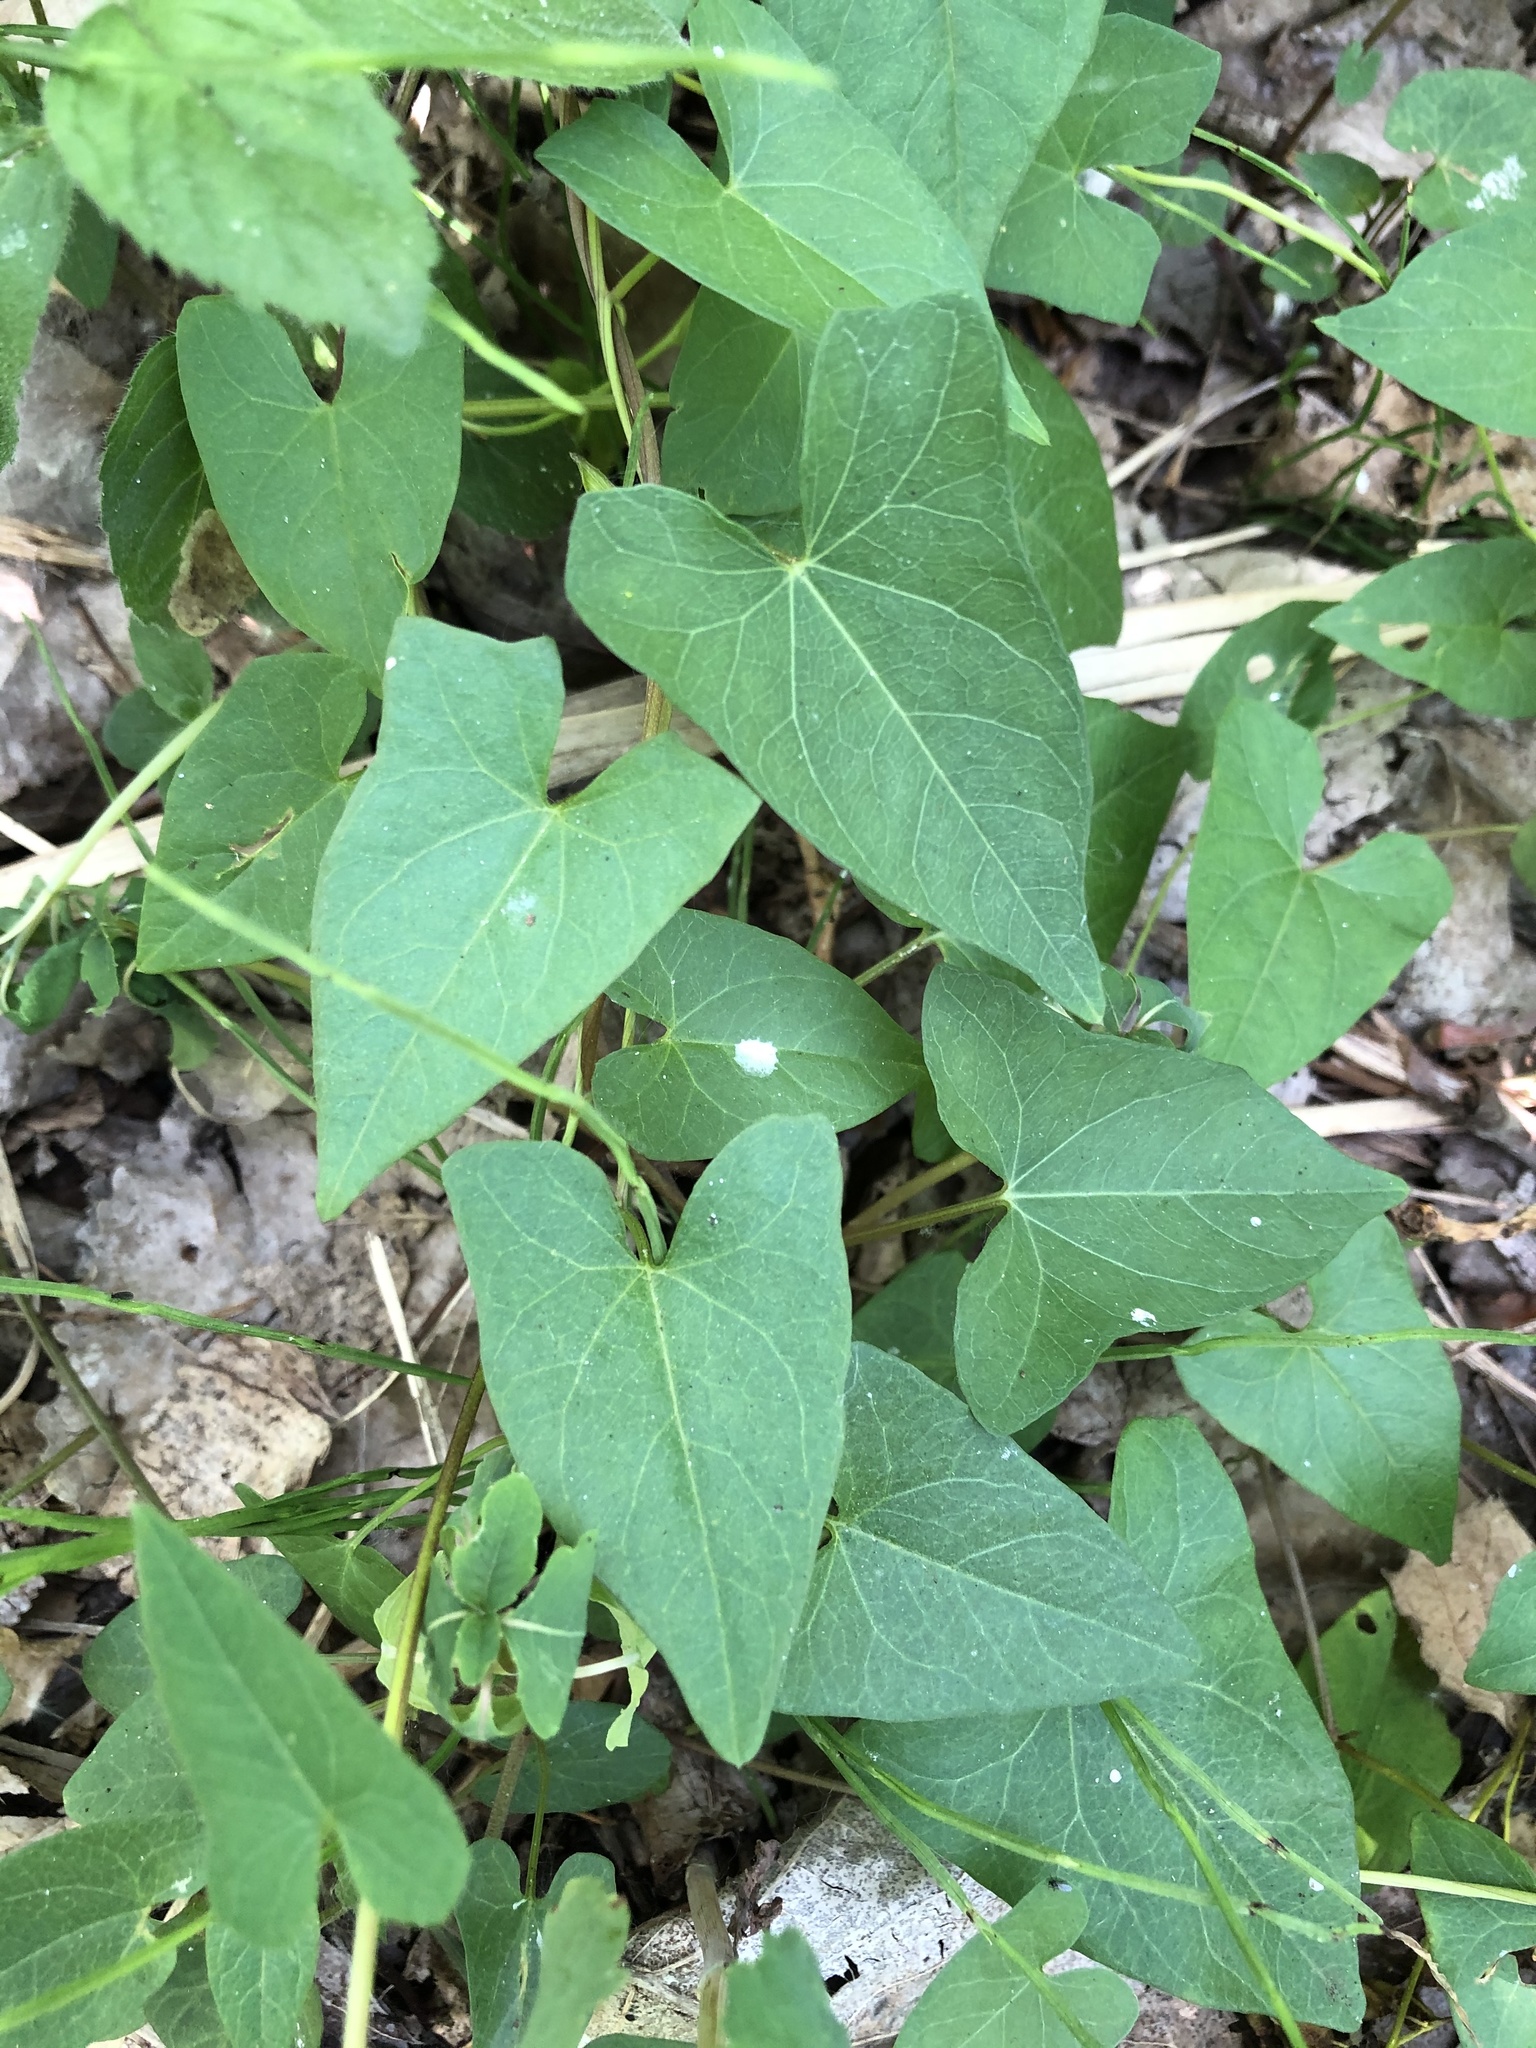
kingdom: Plantae
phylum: Tracheophyta
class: Magnoliopsida
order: Solanales
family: Convolvulaceae
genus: Calystegia
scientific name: Calystegia sepium
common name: Hedge bindweed
